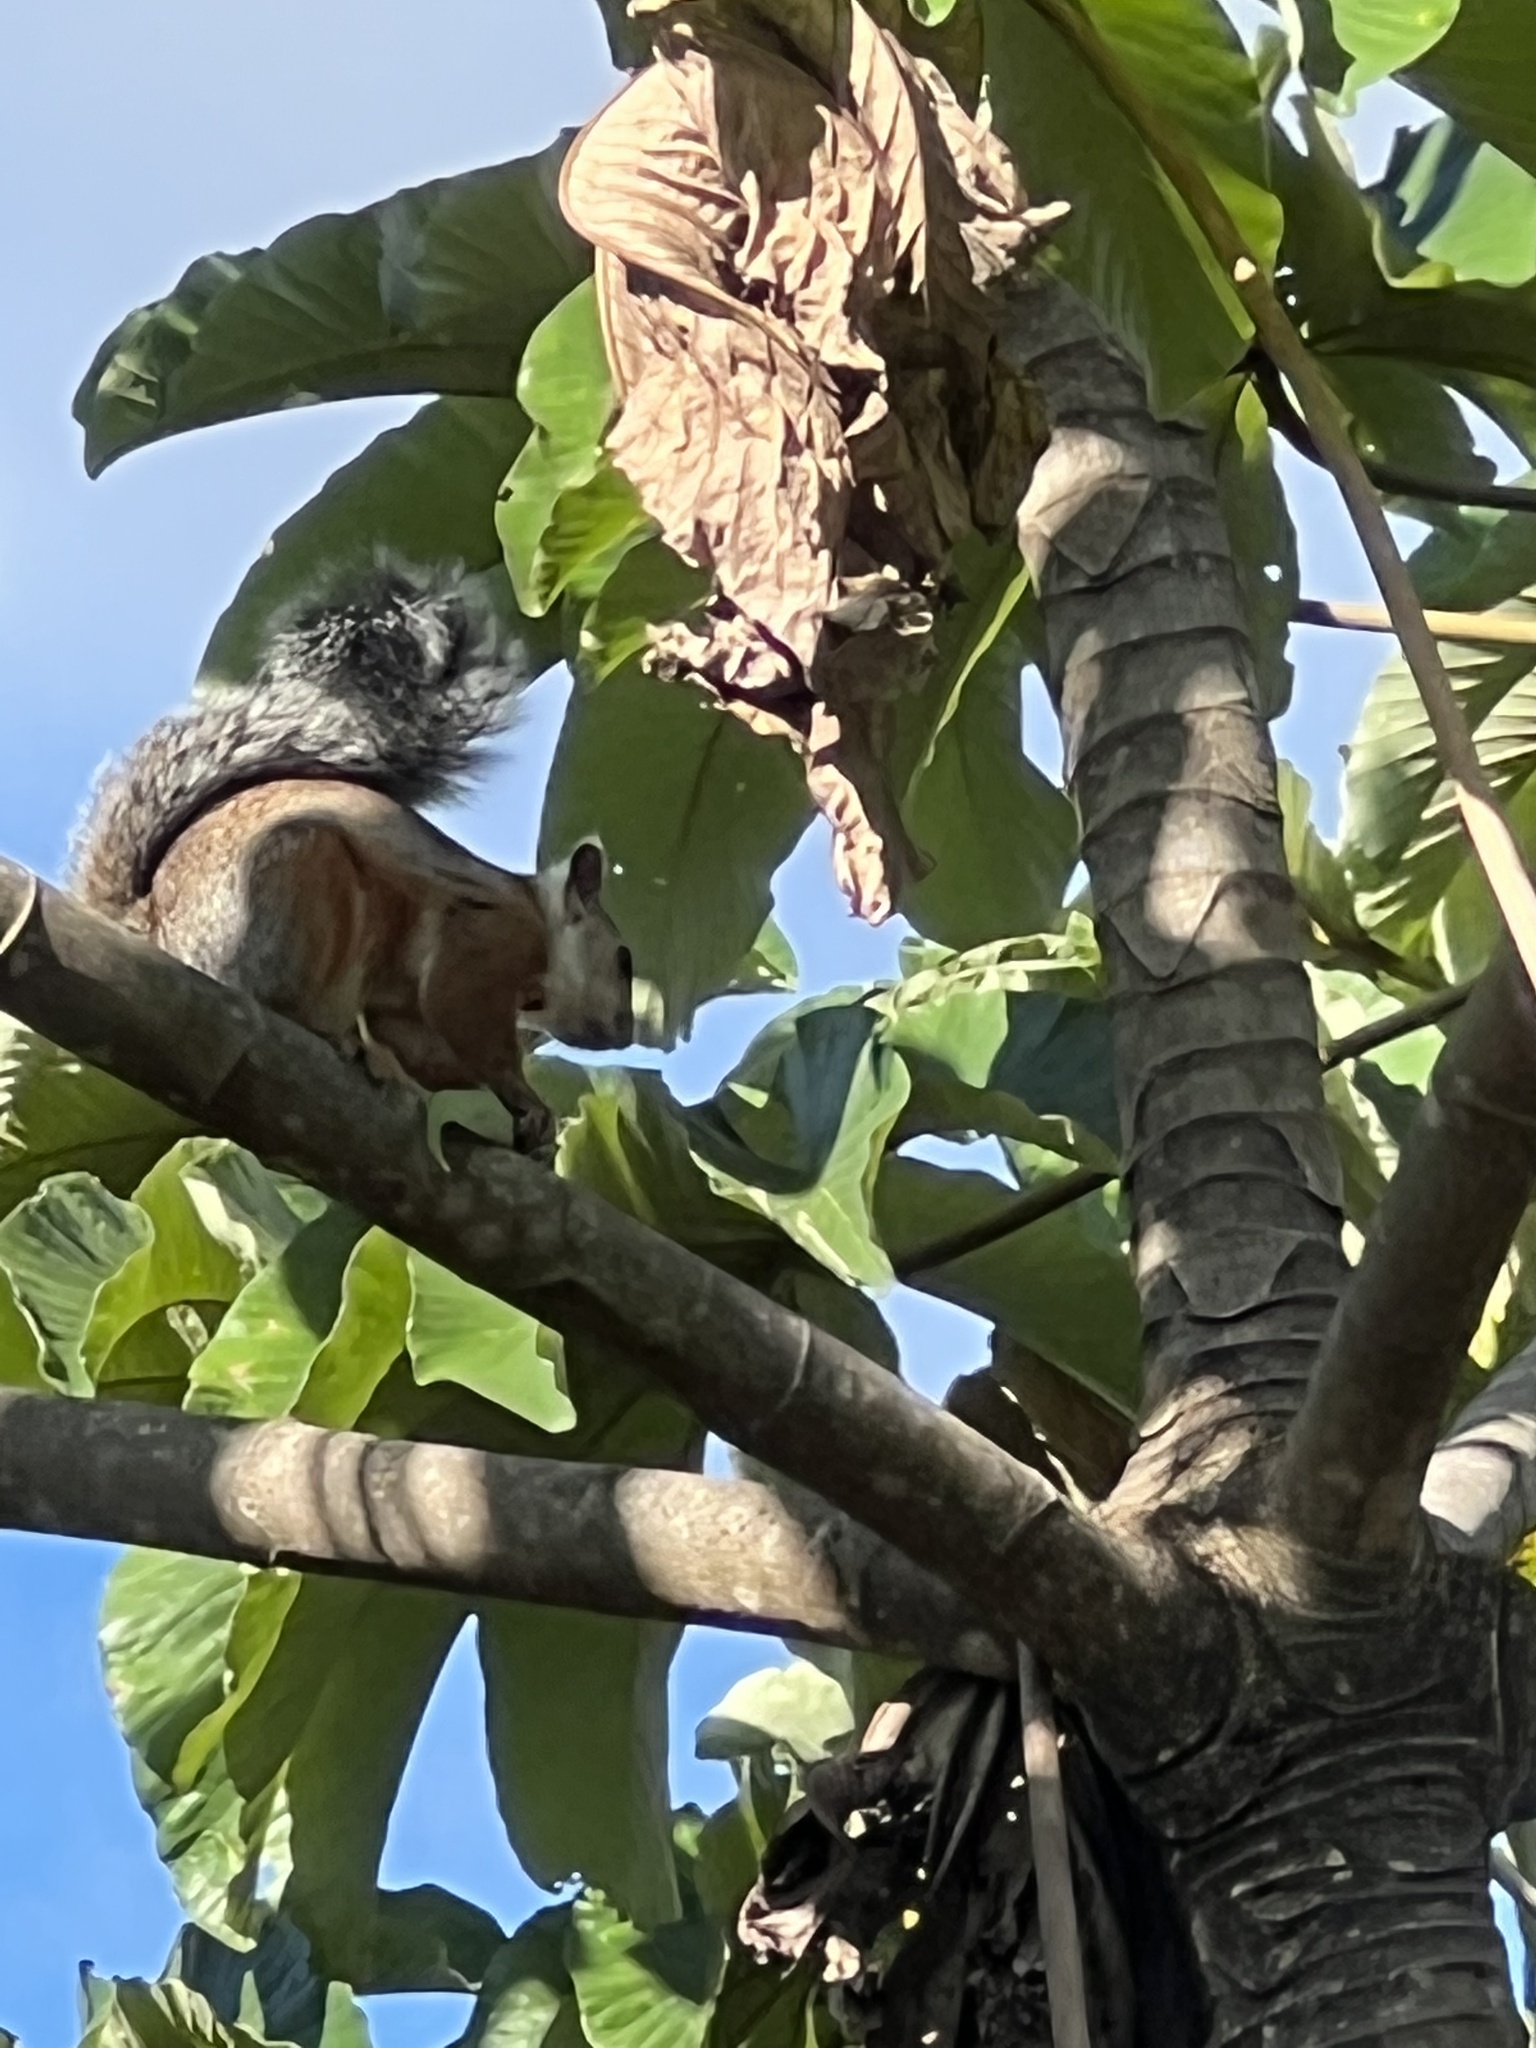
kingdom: Animalia
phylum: Chordata
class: Mammalia
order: Rodentia
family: Sciuridae
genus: Sciurus
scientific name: Sciurus variegatoides
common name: Variegated squirrel
